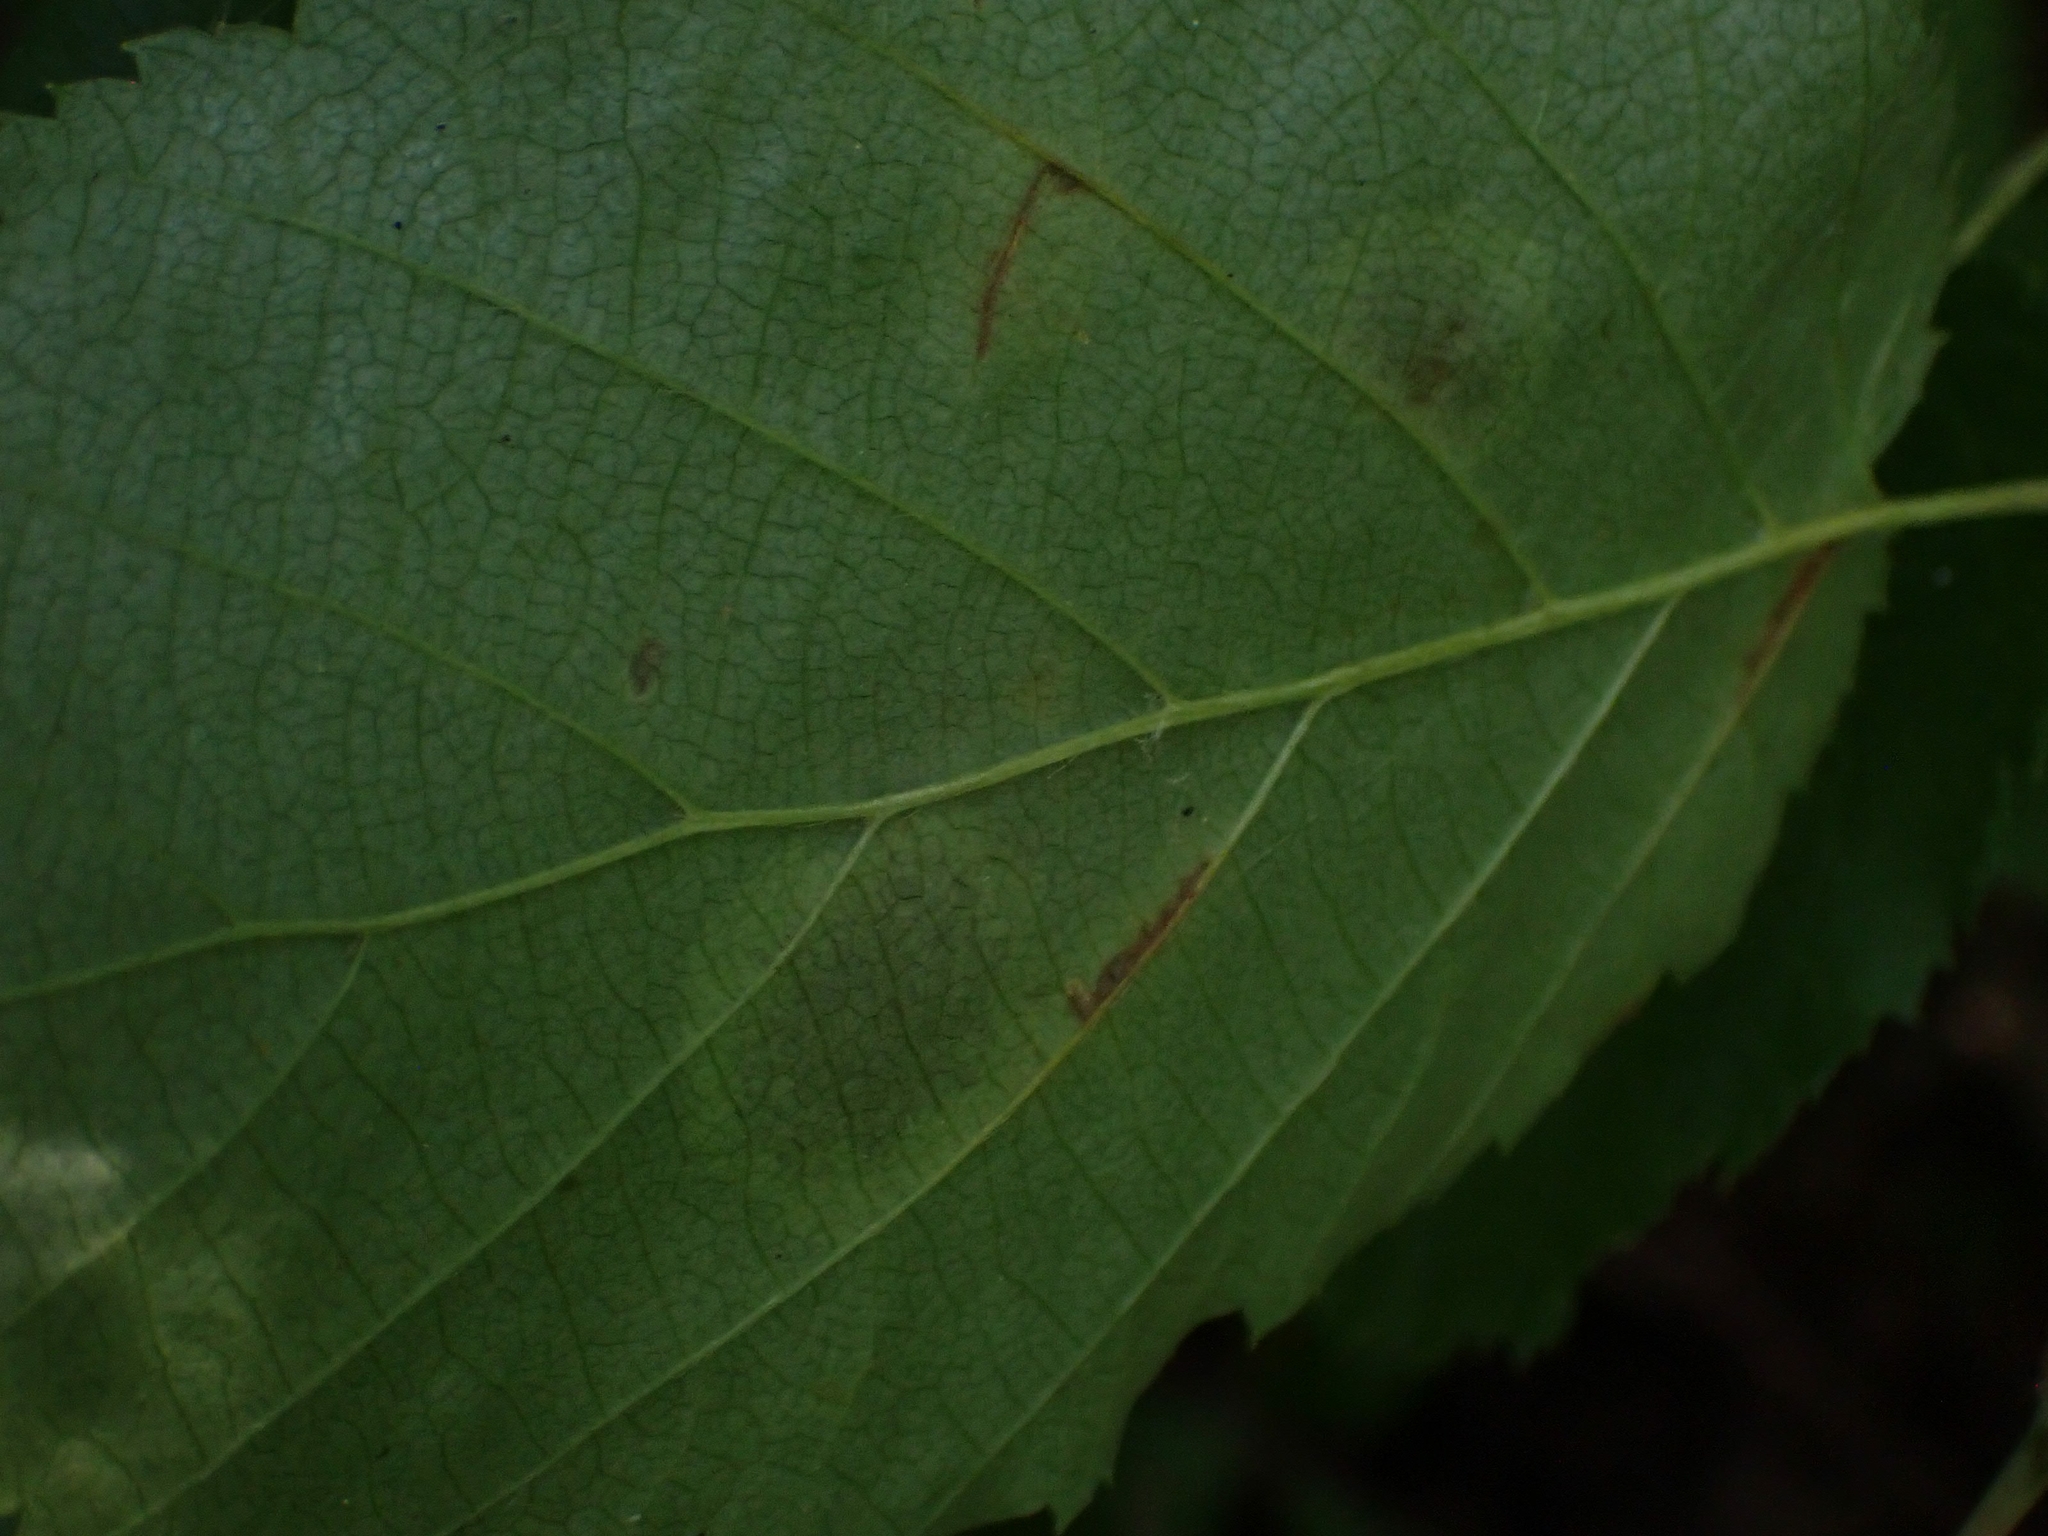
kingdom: Animalia
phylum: Arthropoda
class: Insecta
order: Lepidoptera
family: Gracillariidae
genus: Cameraria
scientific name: Cameraria corylisella
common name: Hazel blotchminer
